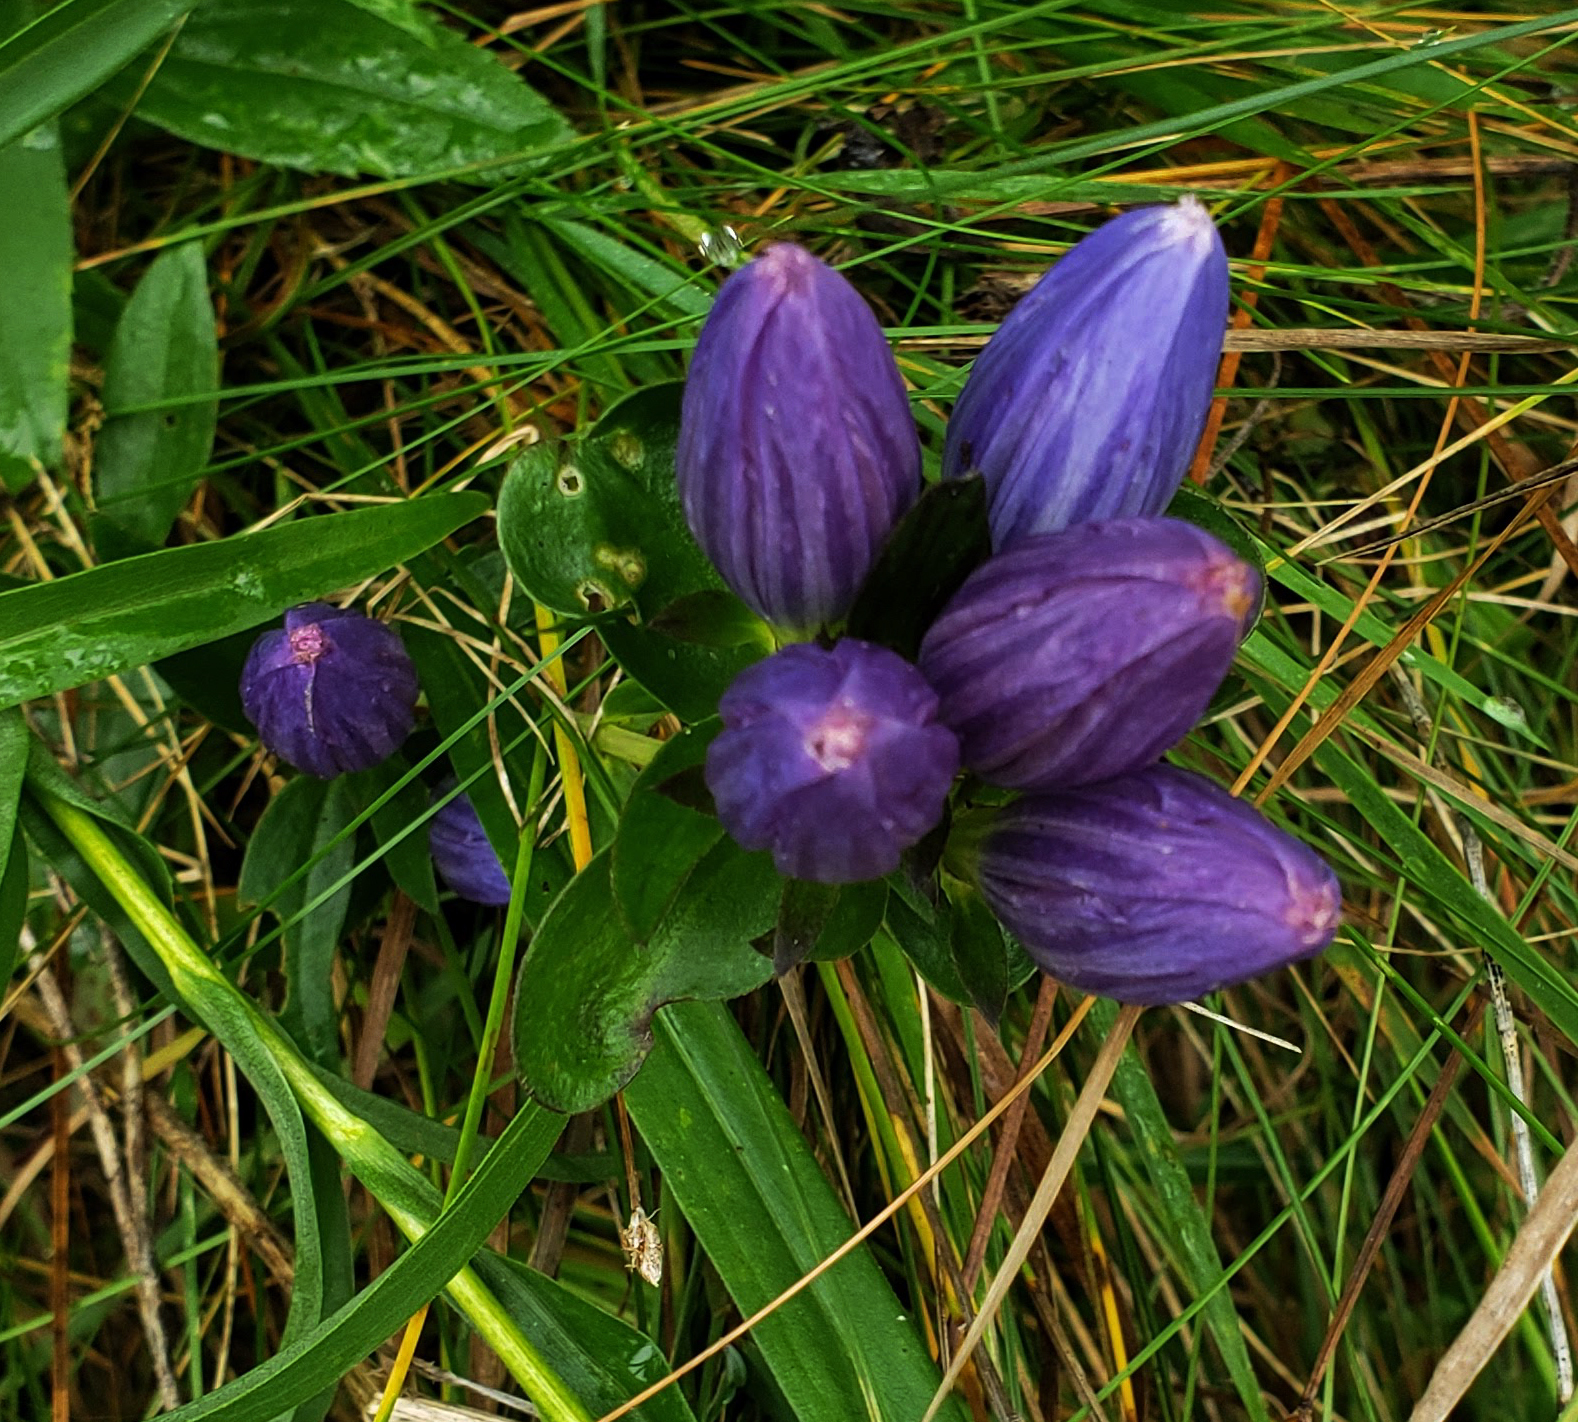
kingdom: Plantae
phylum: Tracheophyta
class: Magnoliopsida
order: Gentianales
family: Gentianaceae
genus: Gentiana
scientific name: Gentiana andrewsii
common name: Bottle gentian
